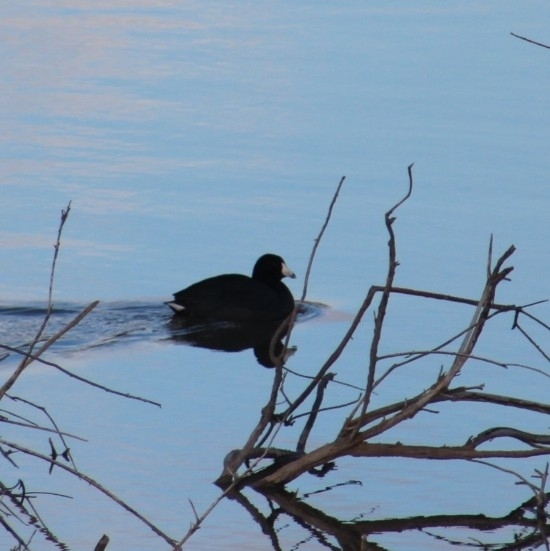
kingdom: Animalia
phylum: Chordata
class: Aves
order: Gruiformes
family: Rallidae
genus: Fulica
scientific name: Fulica americana
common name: American coot
